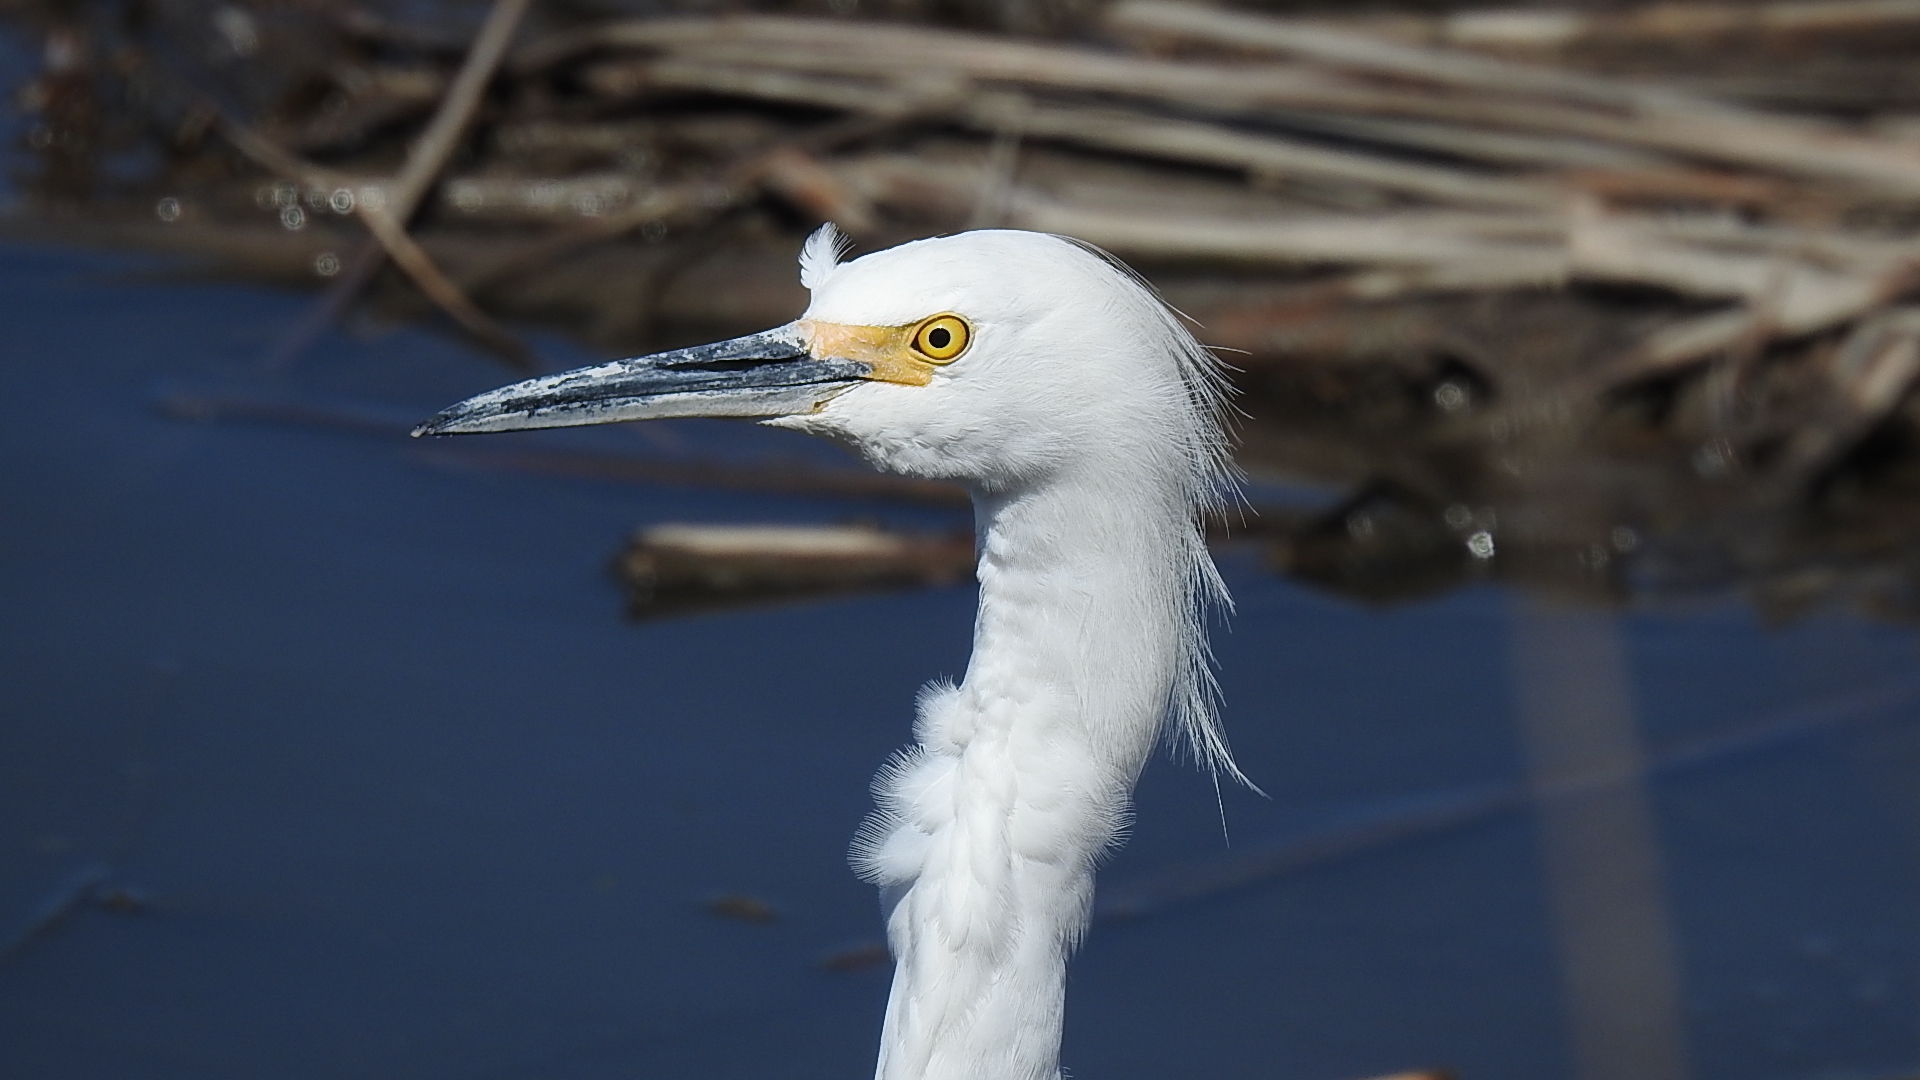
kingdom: Animalia
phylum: Chordata
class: Aves
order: Pelecaniformes
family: Ardeidae
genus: Egretta
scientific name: Egretta thula
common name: Snowy egret
